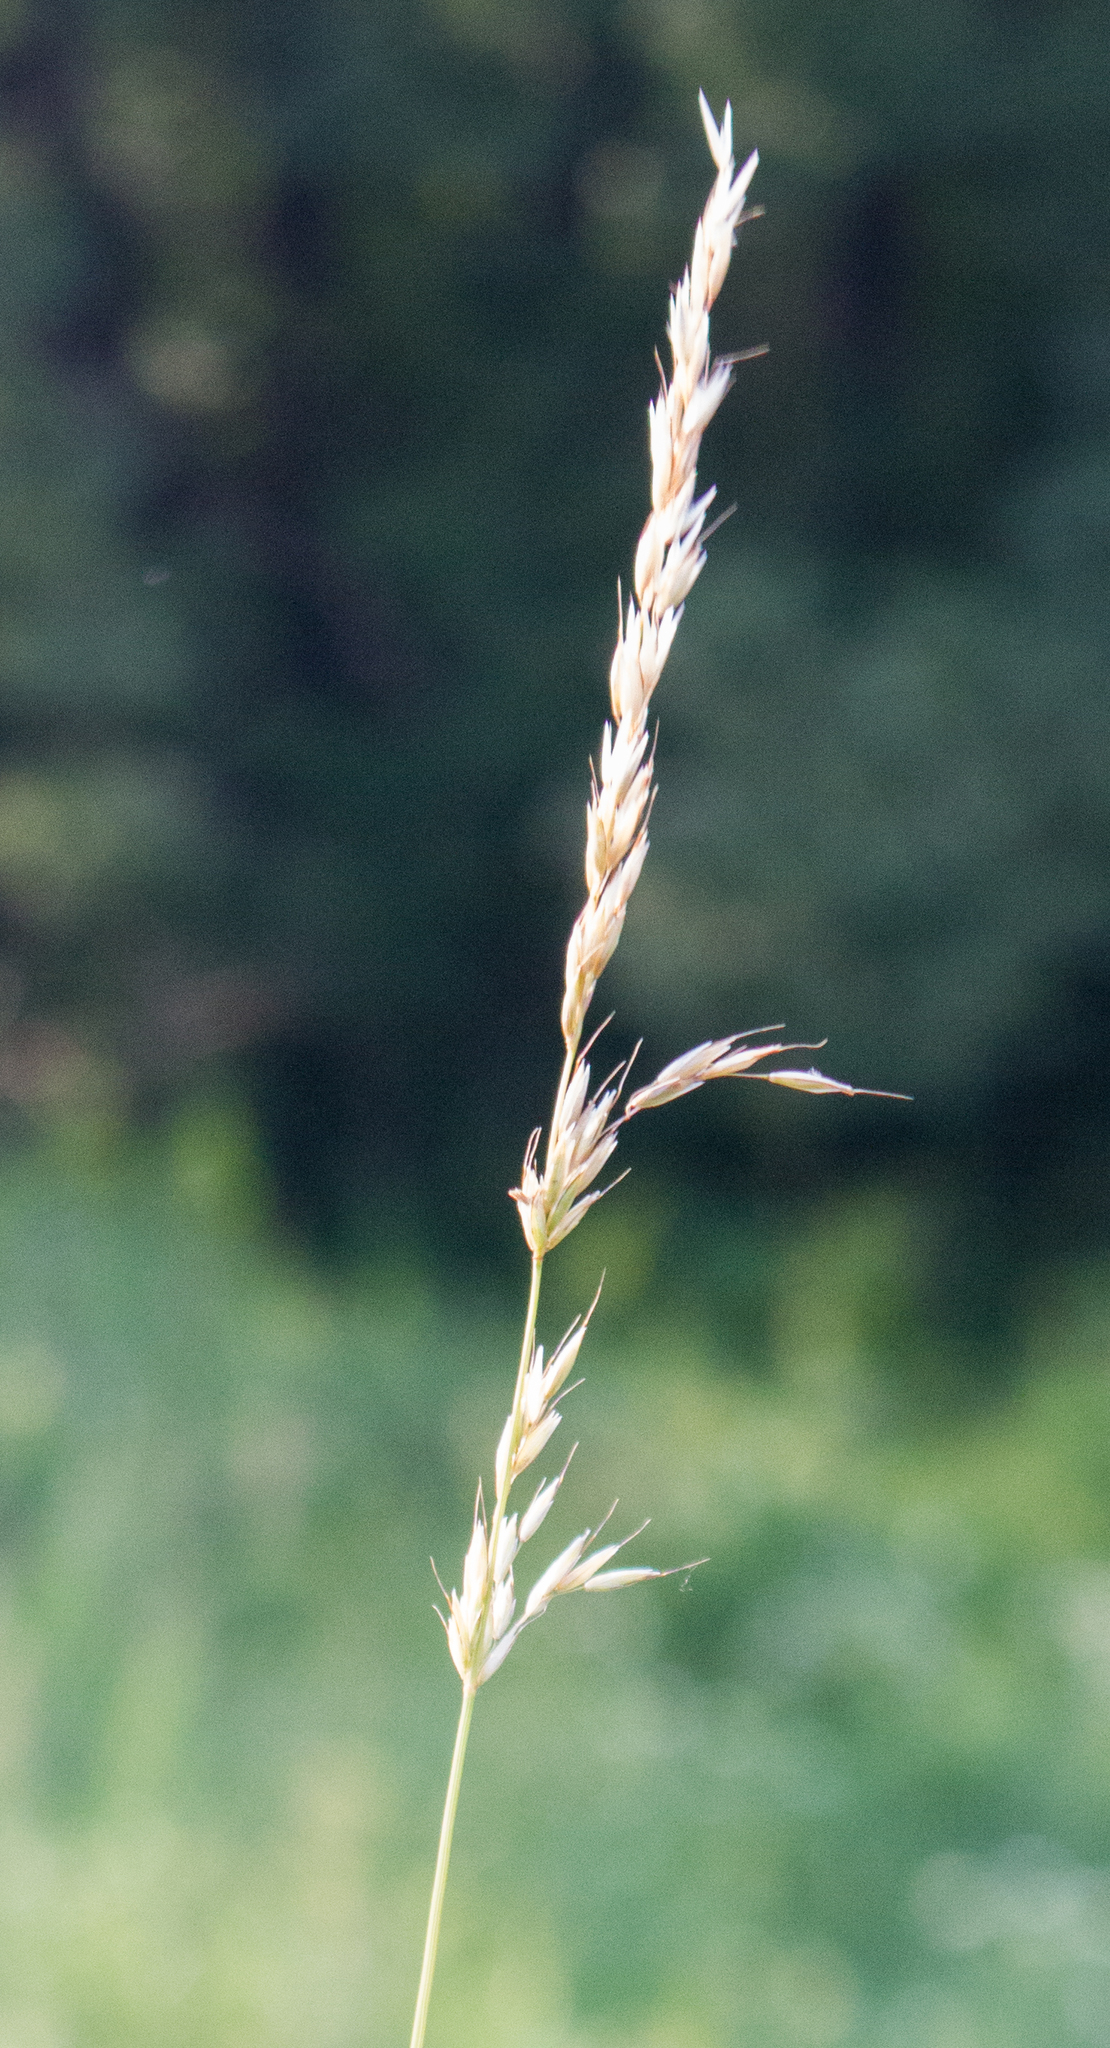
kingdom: Plantae
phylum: Tracheophyta
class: Liliopsida
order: Poales
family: Poaceae
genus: Arrhenatherum
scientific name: Arrhenatherum elatius
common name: Tall oatgrass
